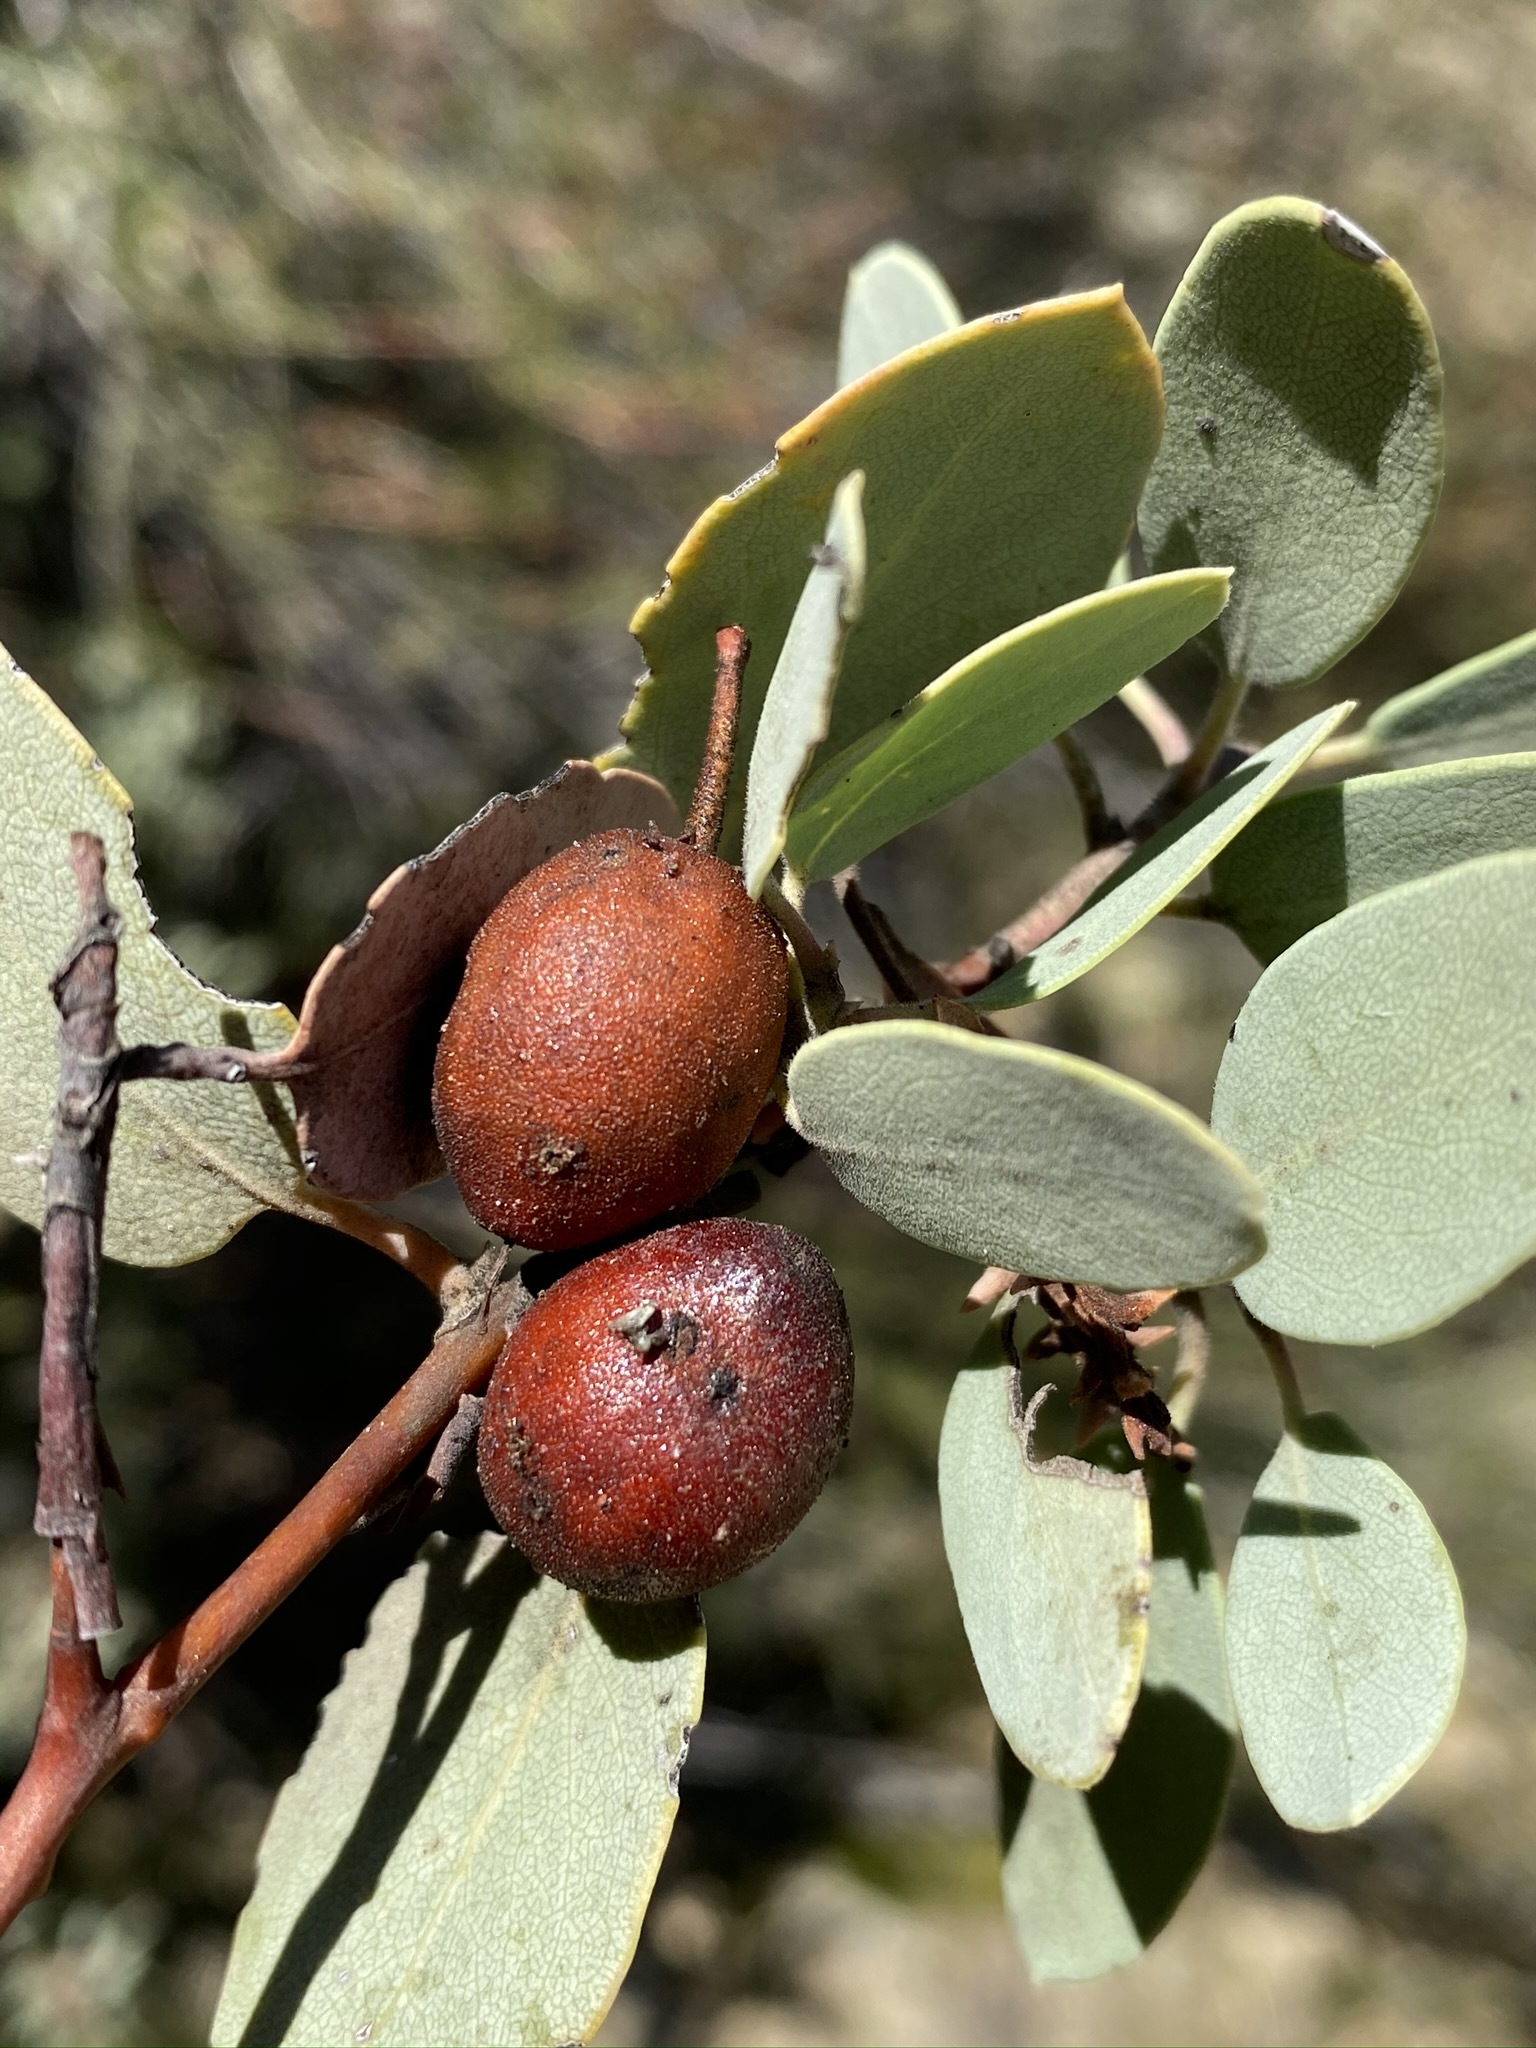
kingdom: Plantae
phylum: Tracheophyta
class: Magnoliopsida
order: Ericales
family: Ericaceae
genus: Arctostaphylos
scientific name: Arctostaphylos glauca
